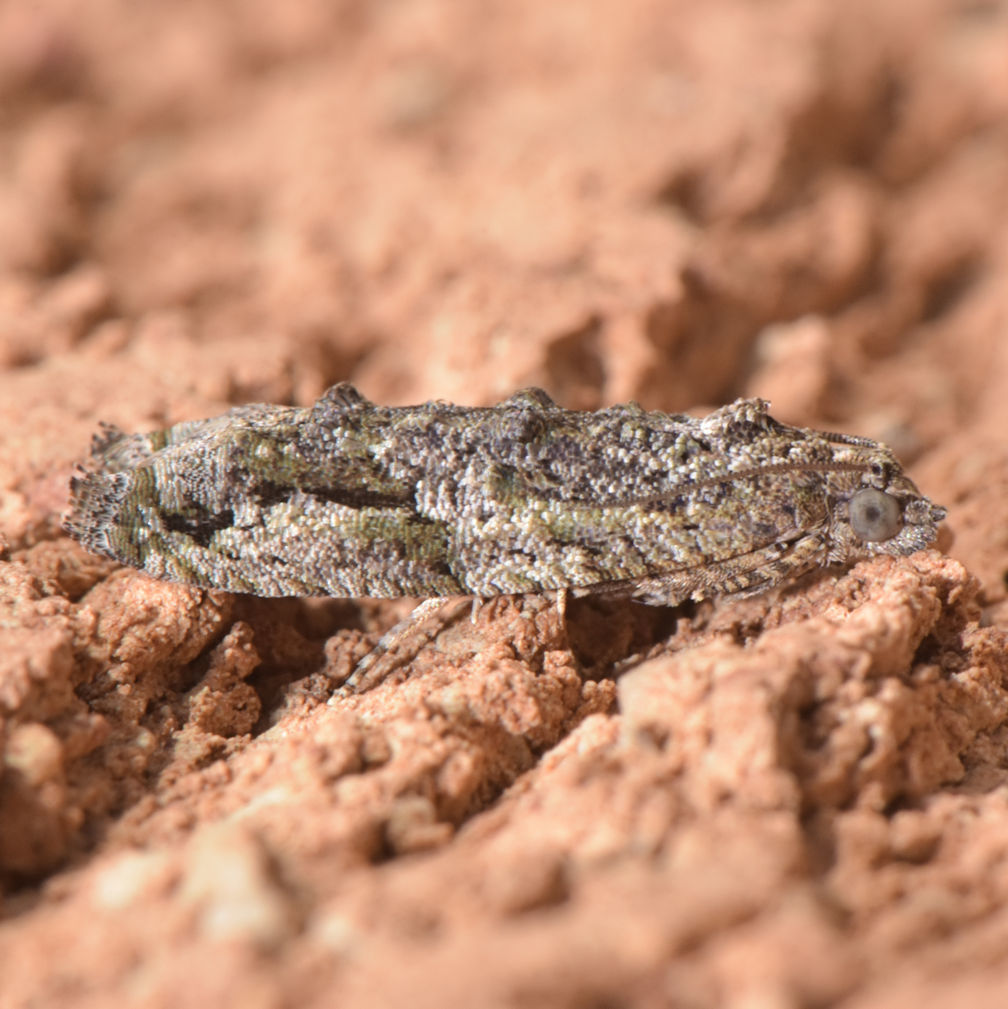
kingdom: Animalia
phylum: Arthropoda
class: Insecta
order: Lepidoptera
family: Tortricidae
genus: Proteoteras
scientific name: Proteoteras aesculana
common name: Maple twig borer moth
